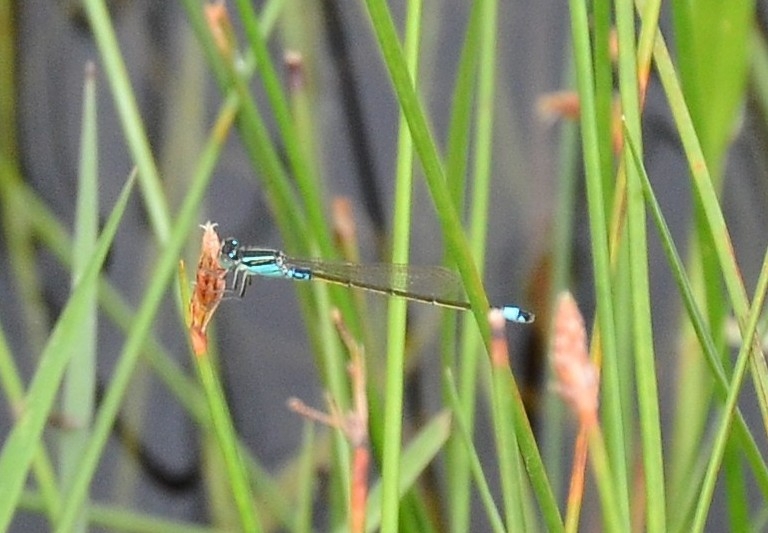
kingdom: Animalia
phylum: Arthropoda
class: Insecta
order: Odonata
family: Coenagrionidae
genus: Ischnura
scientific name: Ischnura senegalensis
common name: Tropical bluetail
